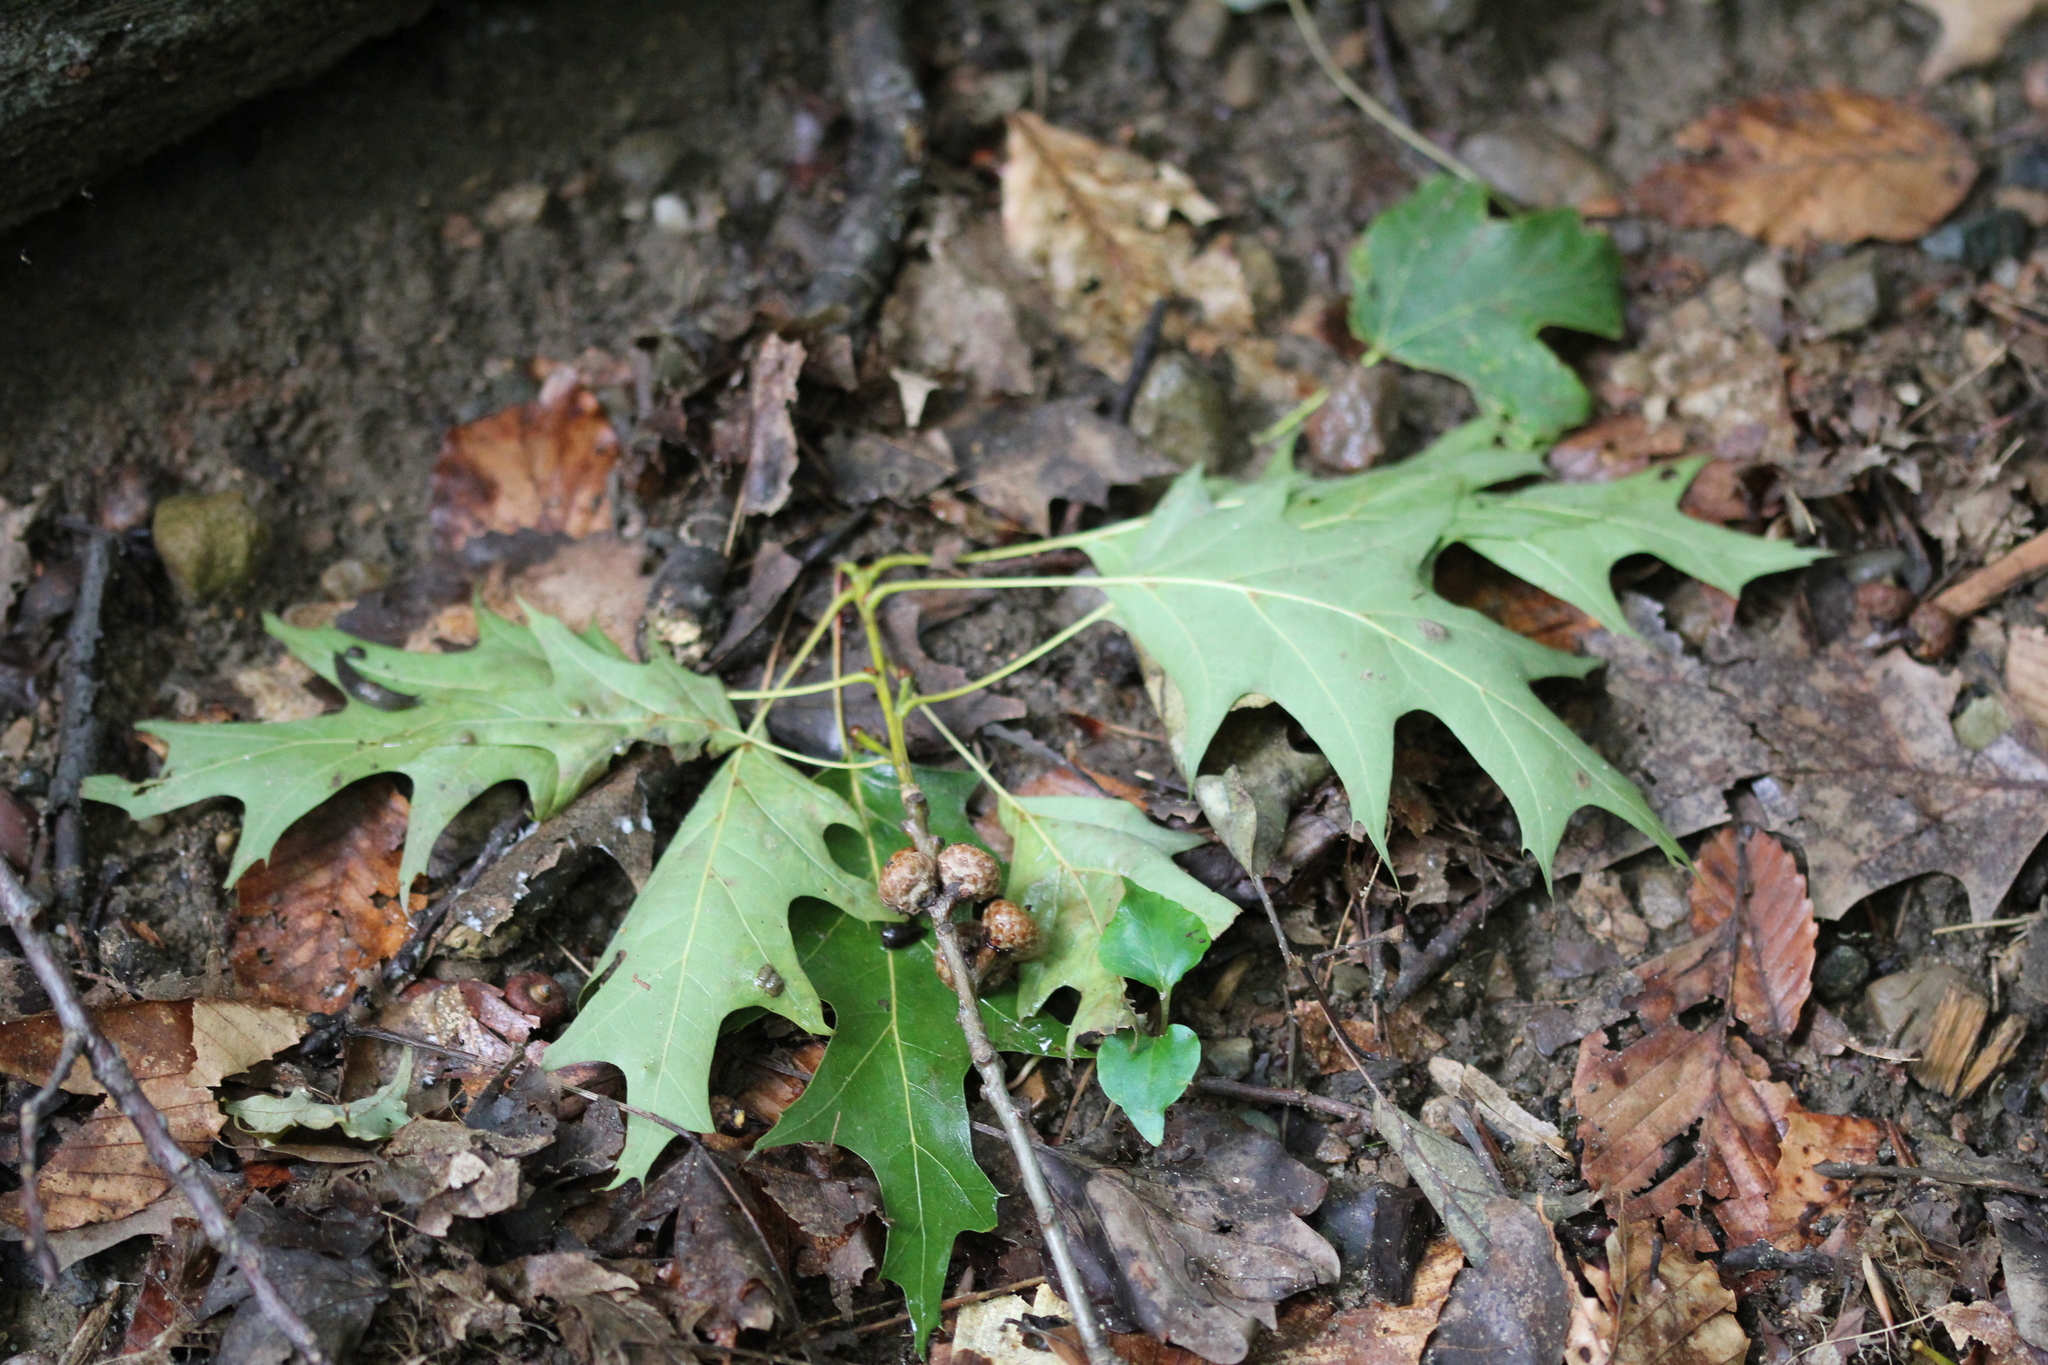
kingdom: Plantae
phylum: Tracheophyta
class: Magnoliopsida
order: Fagales
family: Fagaceae
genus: Quercus
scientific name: Quercus rubra
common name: Red oak
